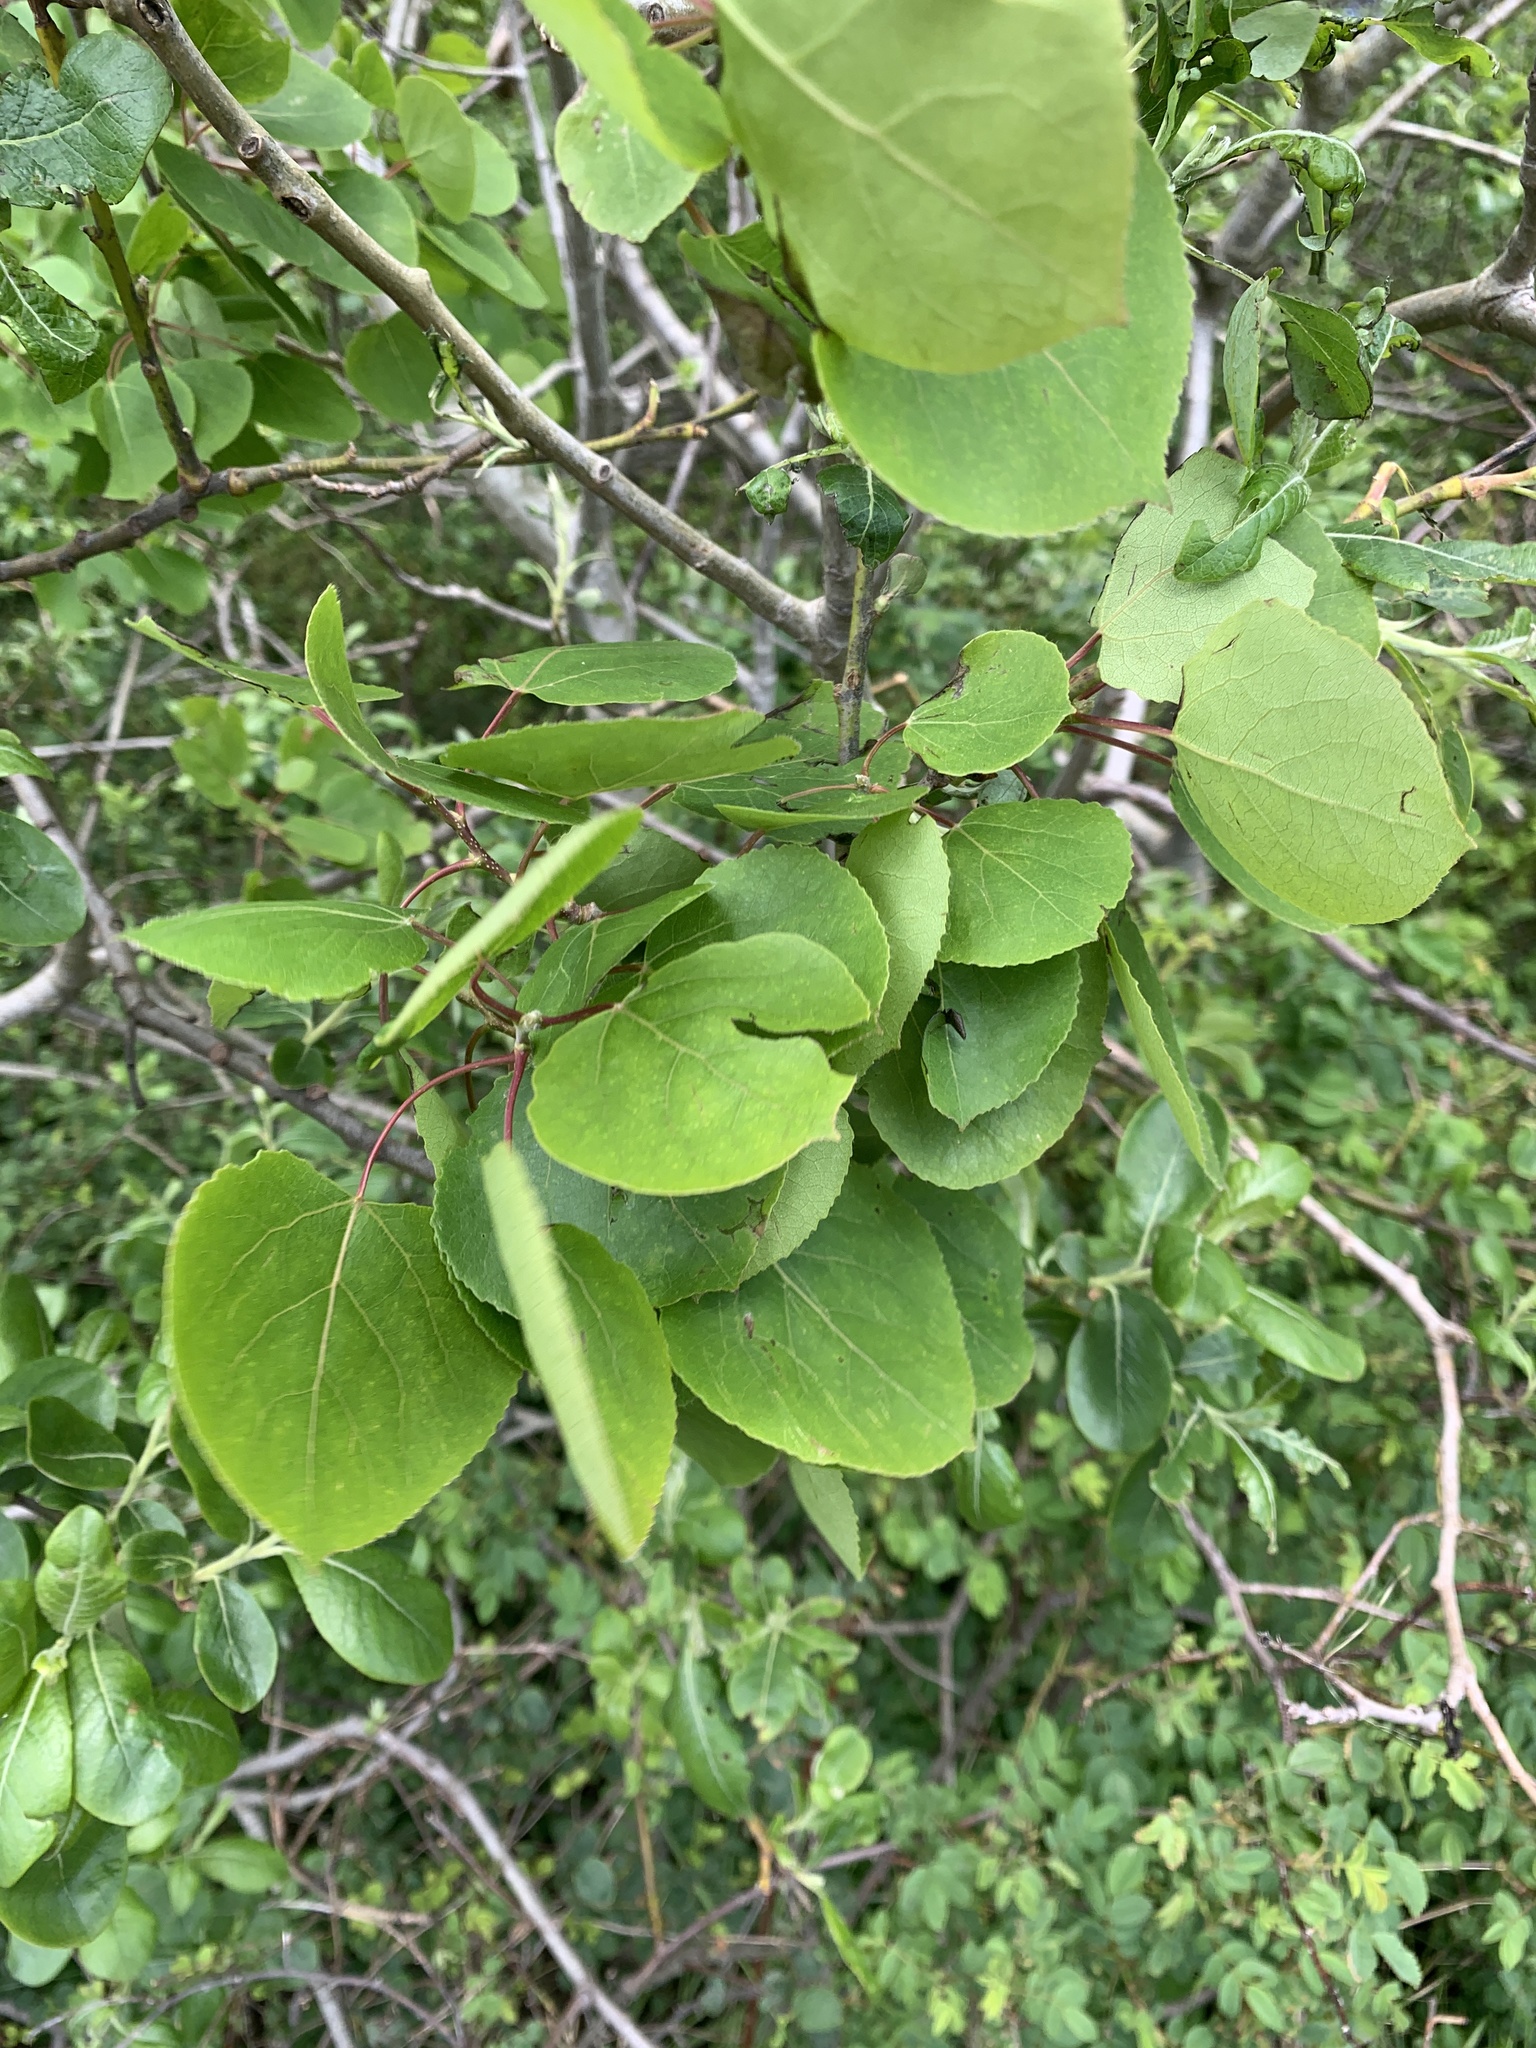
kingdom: Plantae
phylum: Tracheophyta
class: Magnoliopsida
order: Malpighiales
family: Salicaceae
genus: Populus
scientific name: Populus tremuloides
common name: Quaking aspen
